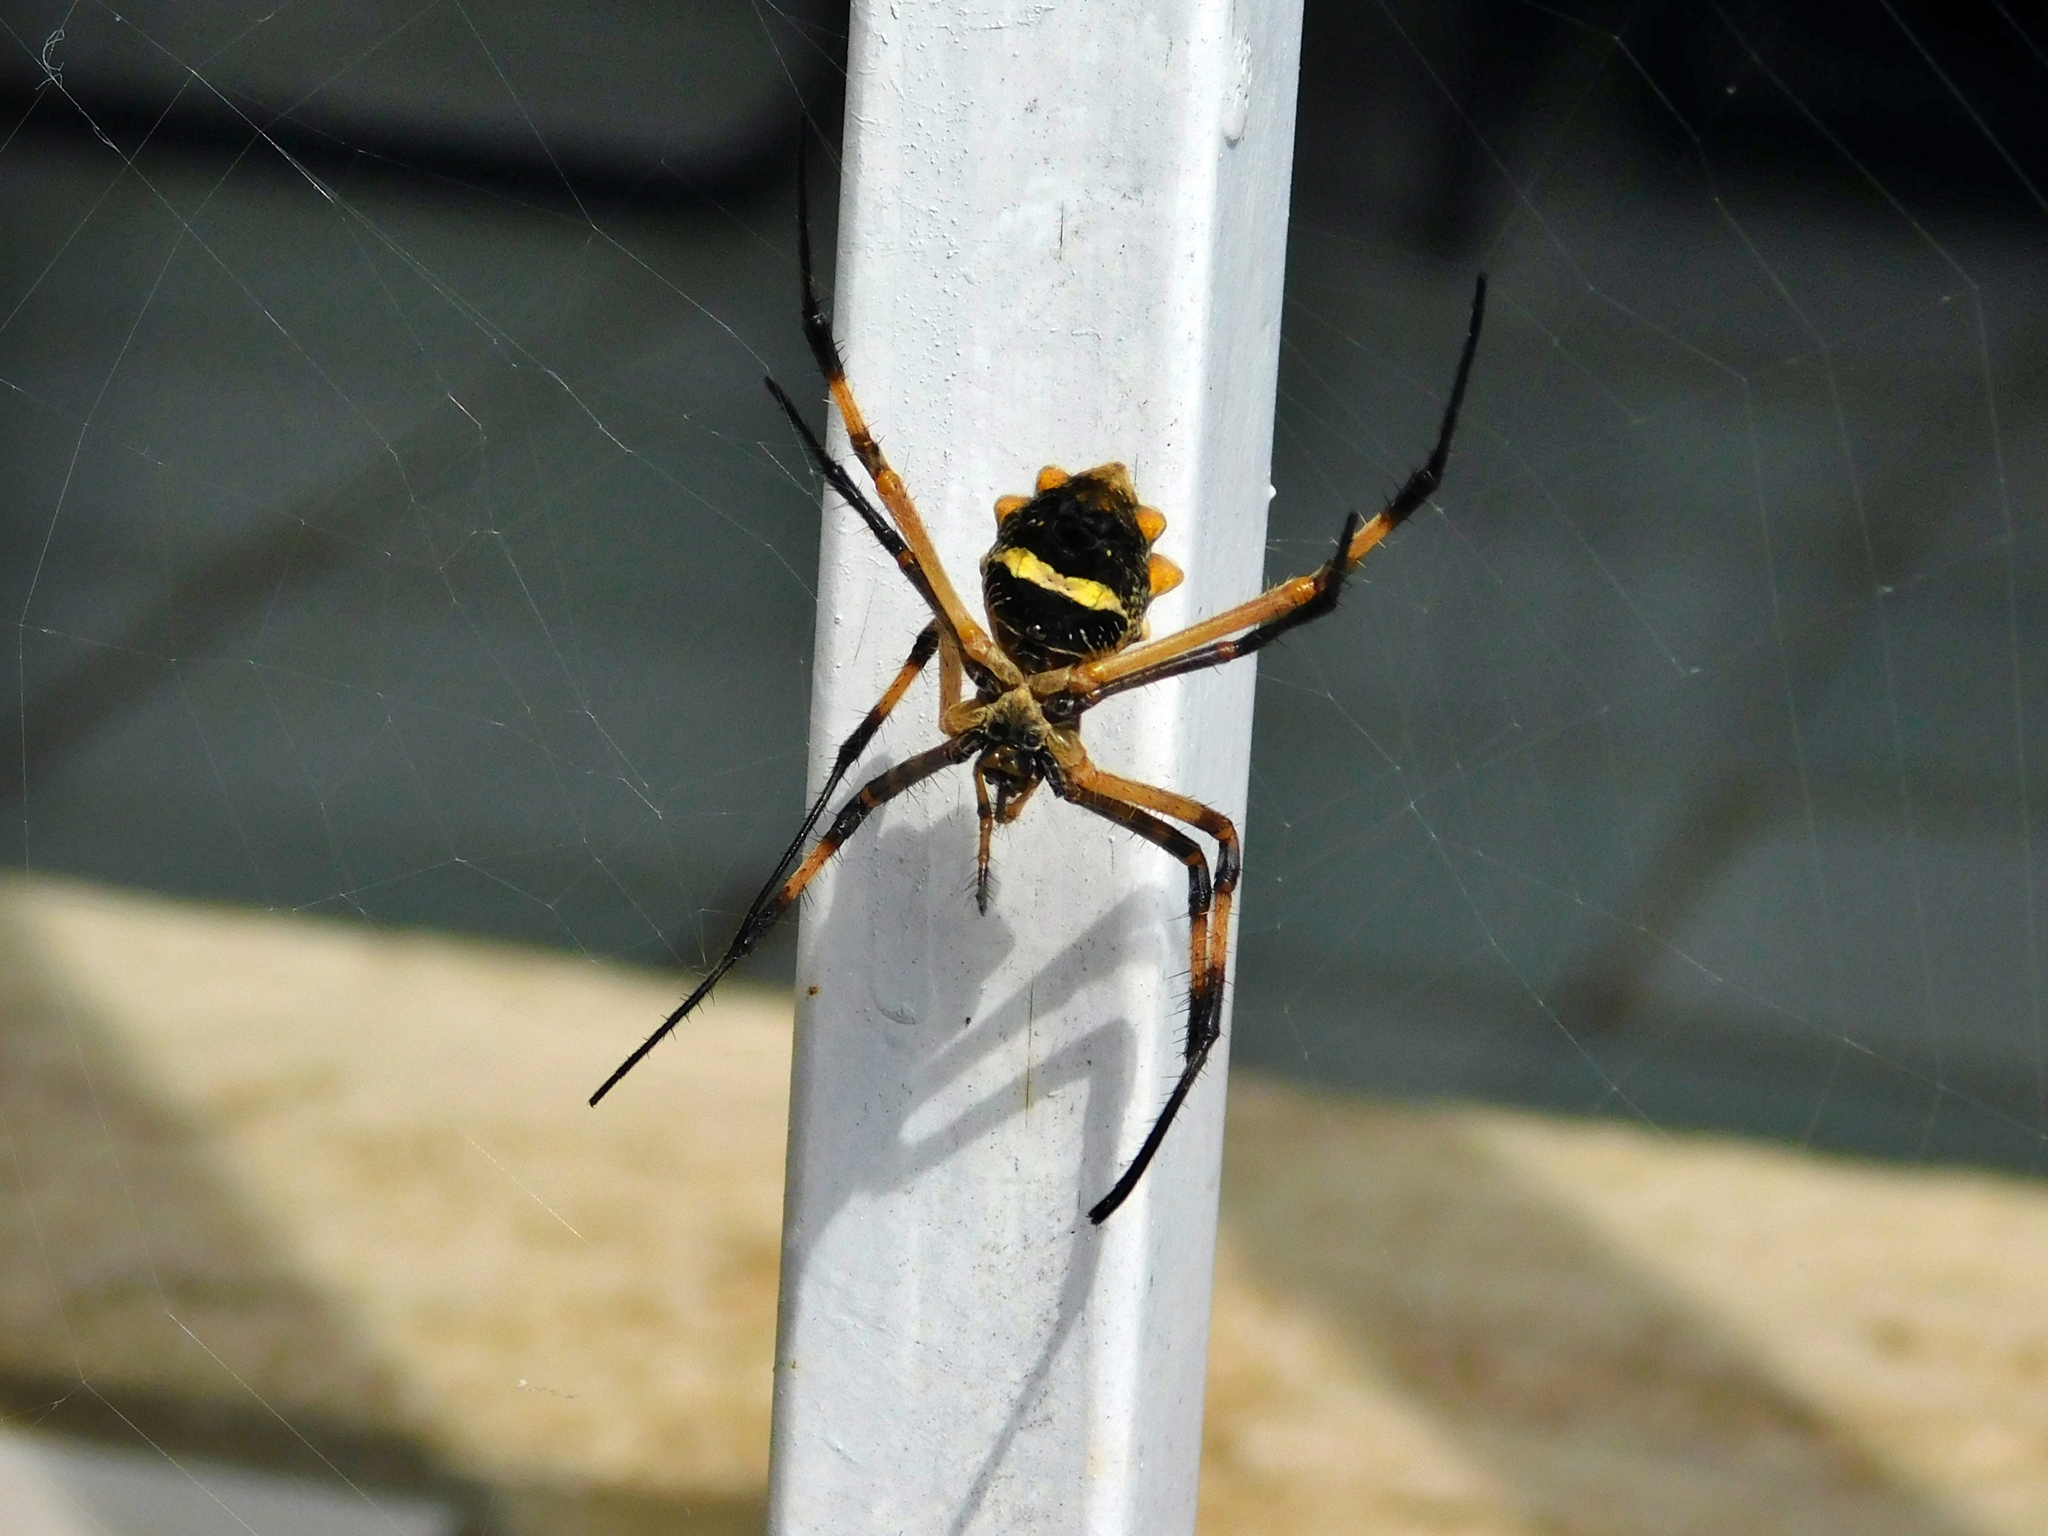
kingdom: Animalia
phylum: Arthropoda
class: Arachnida
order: Araneae
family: Araneidae
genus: Argiope
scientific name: Argiope argentata
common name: Orb weavers
